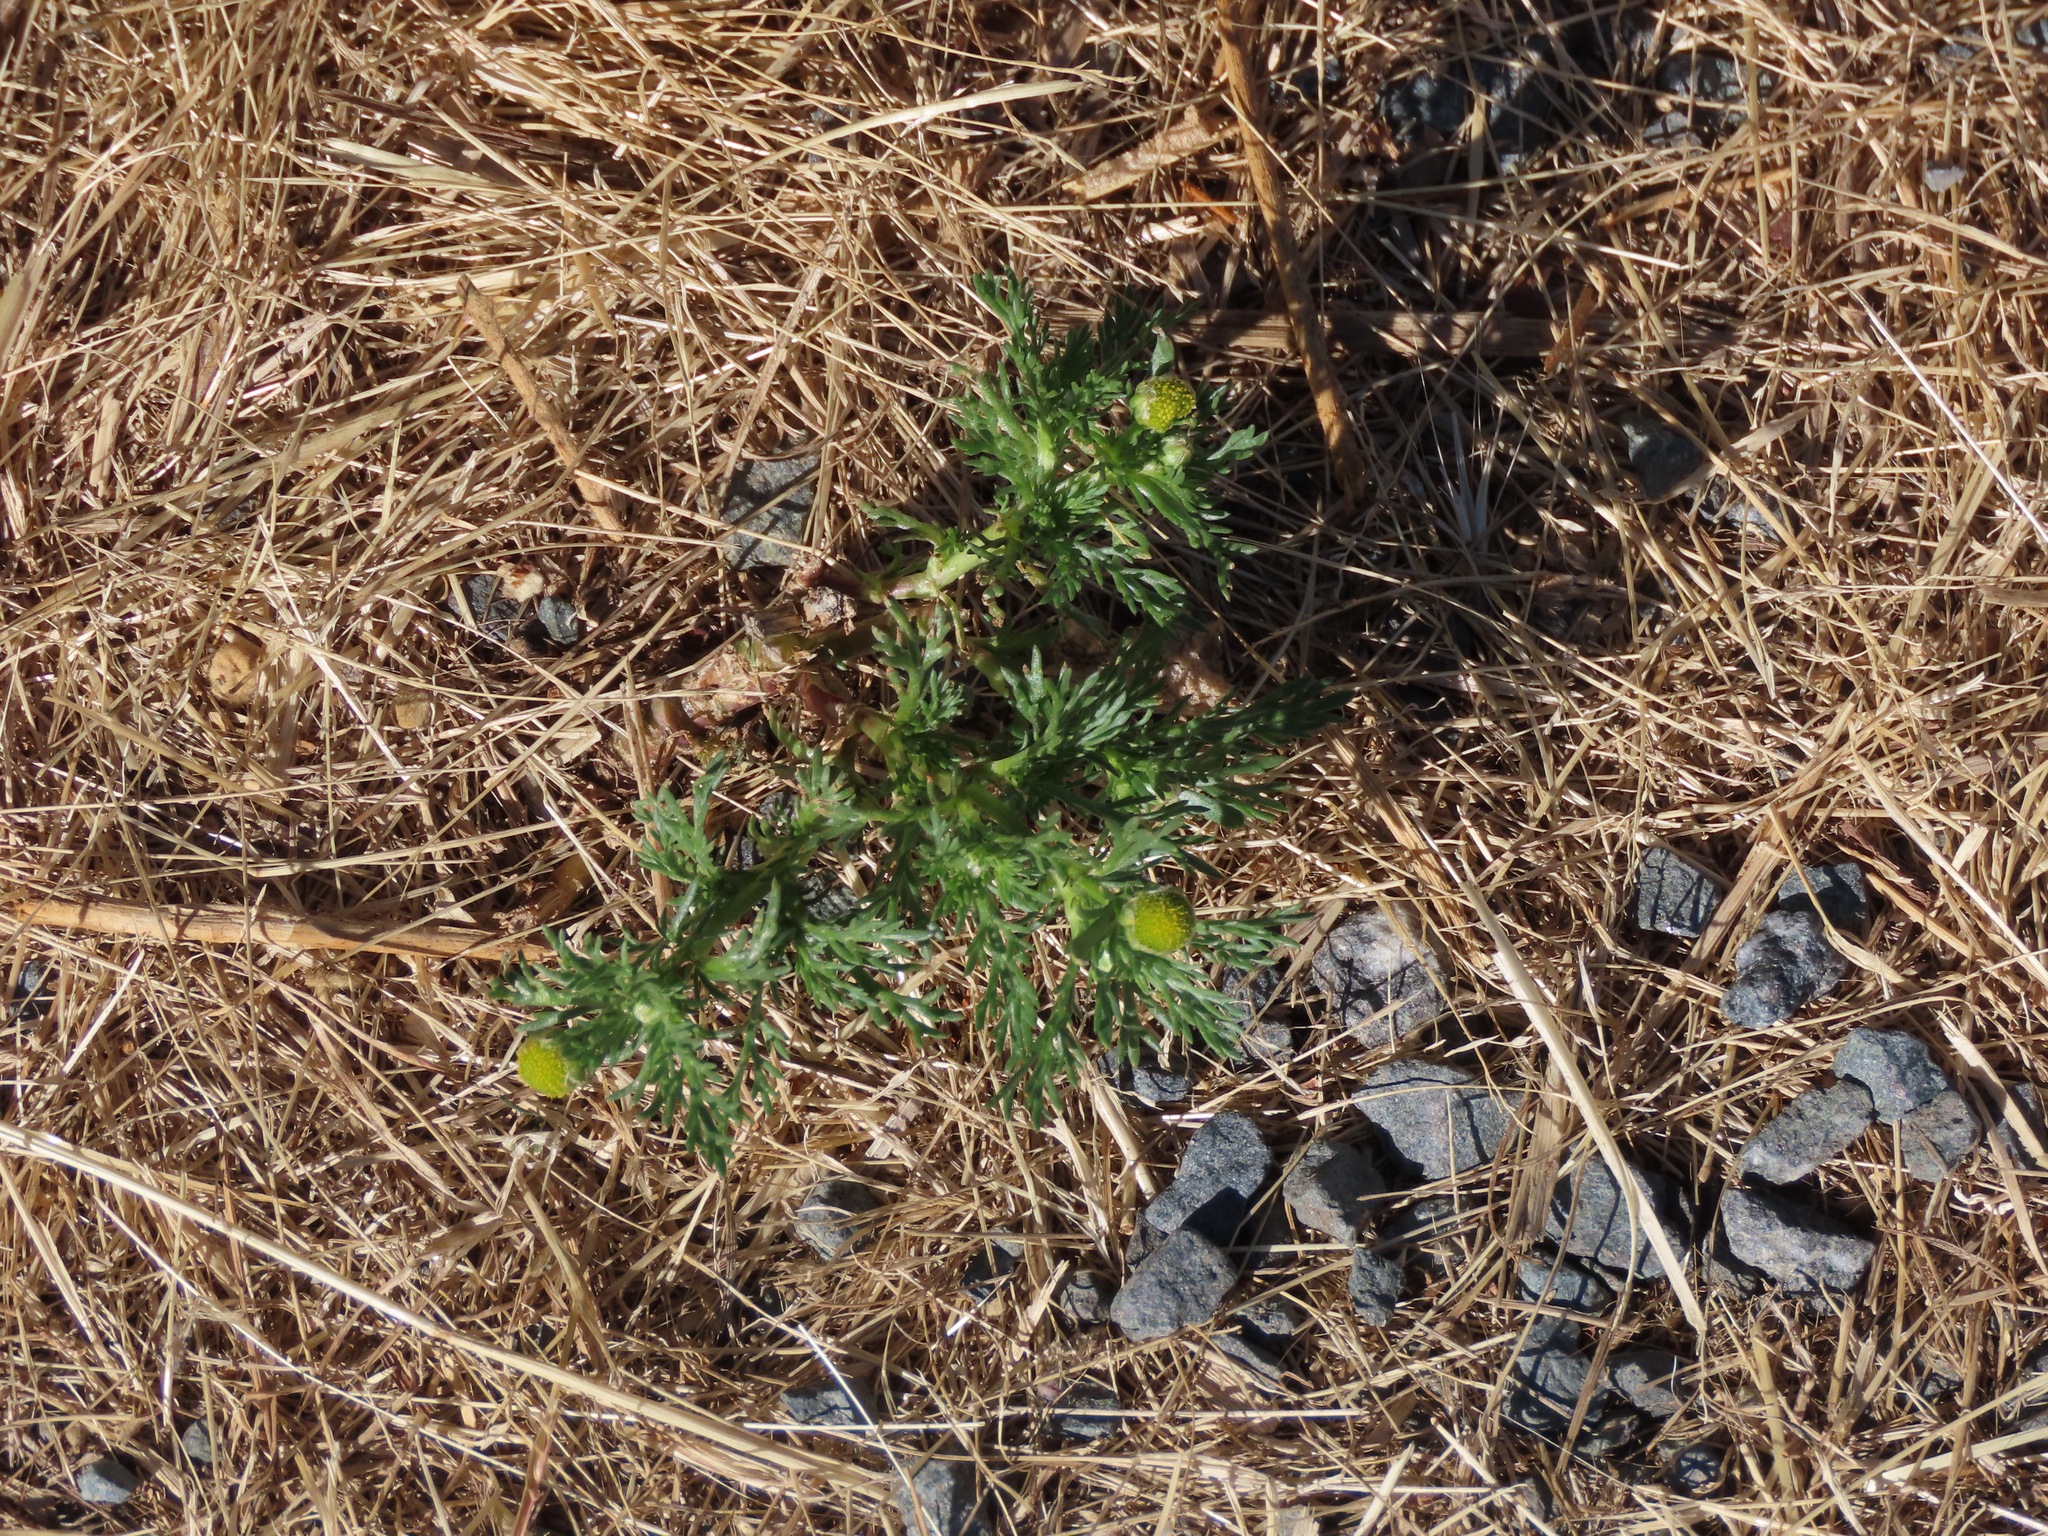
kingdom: Plantae
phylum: Tracheophyta
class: Magnoliopsida
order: Asterales
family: Asteraceae
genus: Matricaria
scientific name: Matricaria discoidea
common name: Disc mayweed
